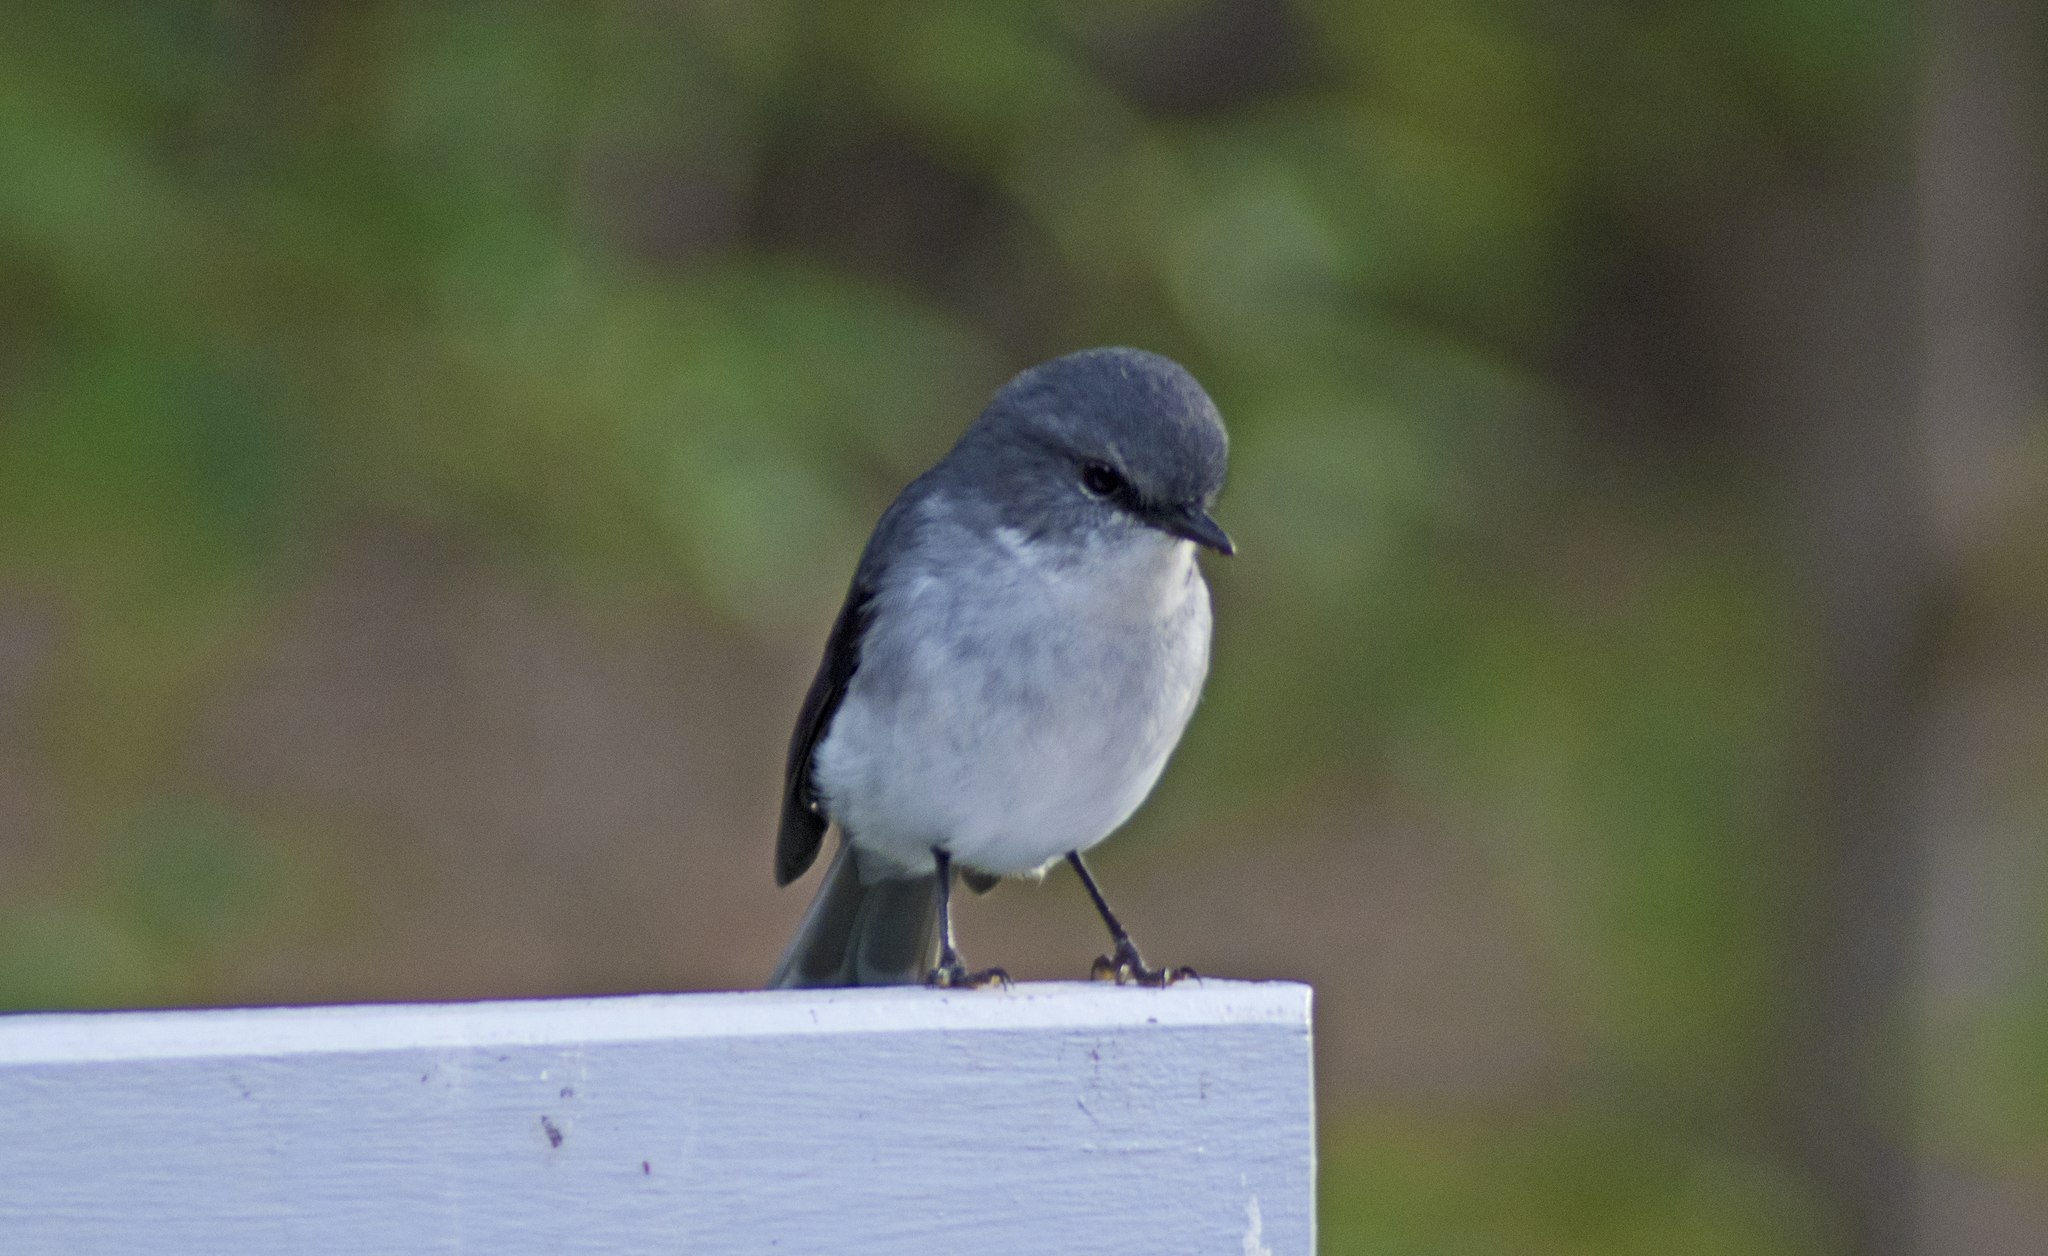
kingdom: Animalia
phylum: Chordata
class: Aves
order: Passeriformes
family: Petroicidae
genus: Eopsaltria
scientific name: Eopsaltria georgiana
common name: White-breasted robin
